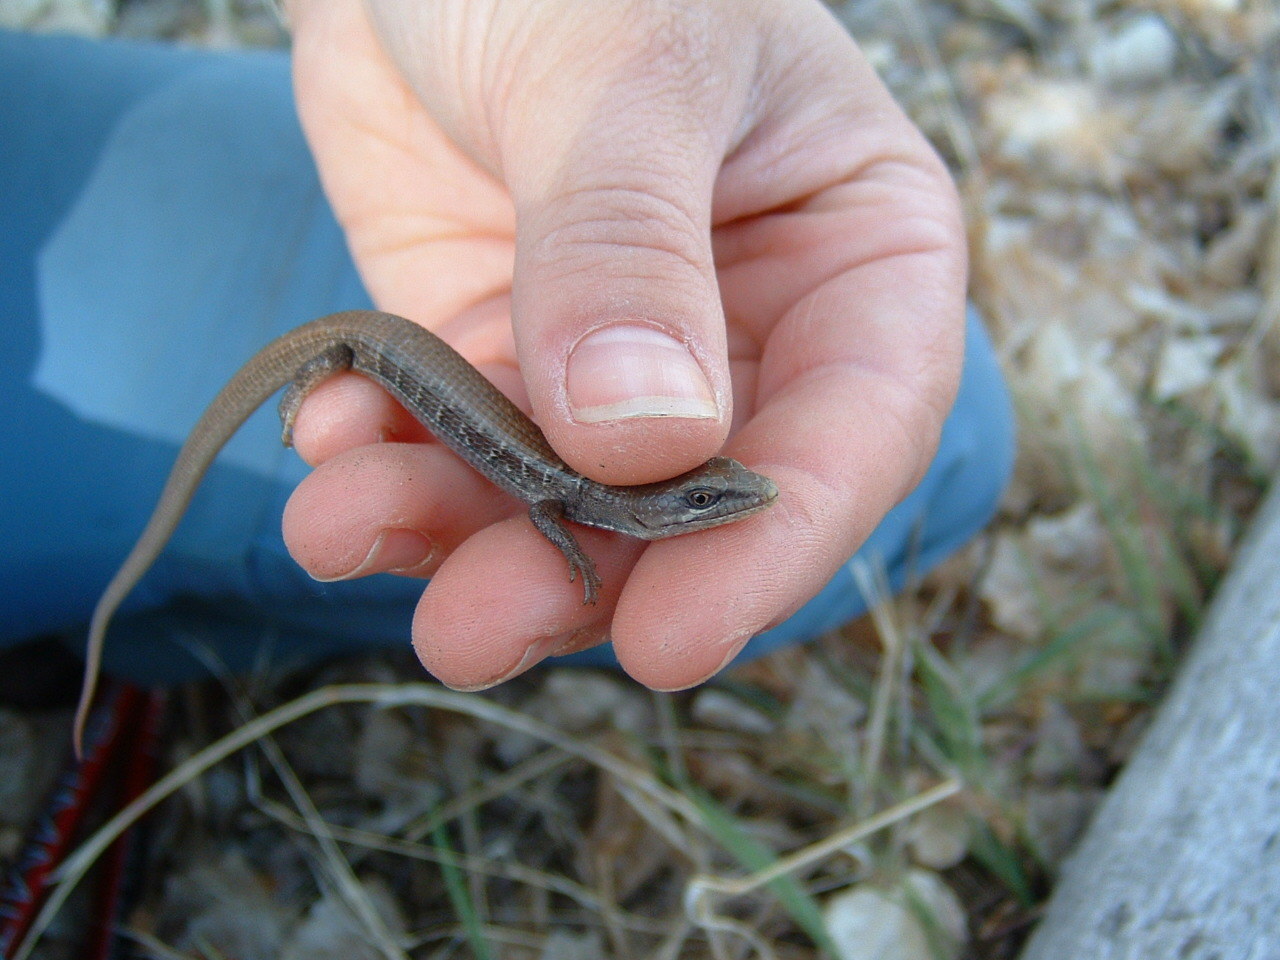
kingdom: Animalia
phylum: Chordata
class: Squamata
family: Anguidae
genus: Elgaria
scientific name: Elgaria multicarinata
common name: Southern alligator lizard
